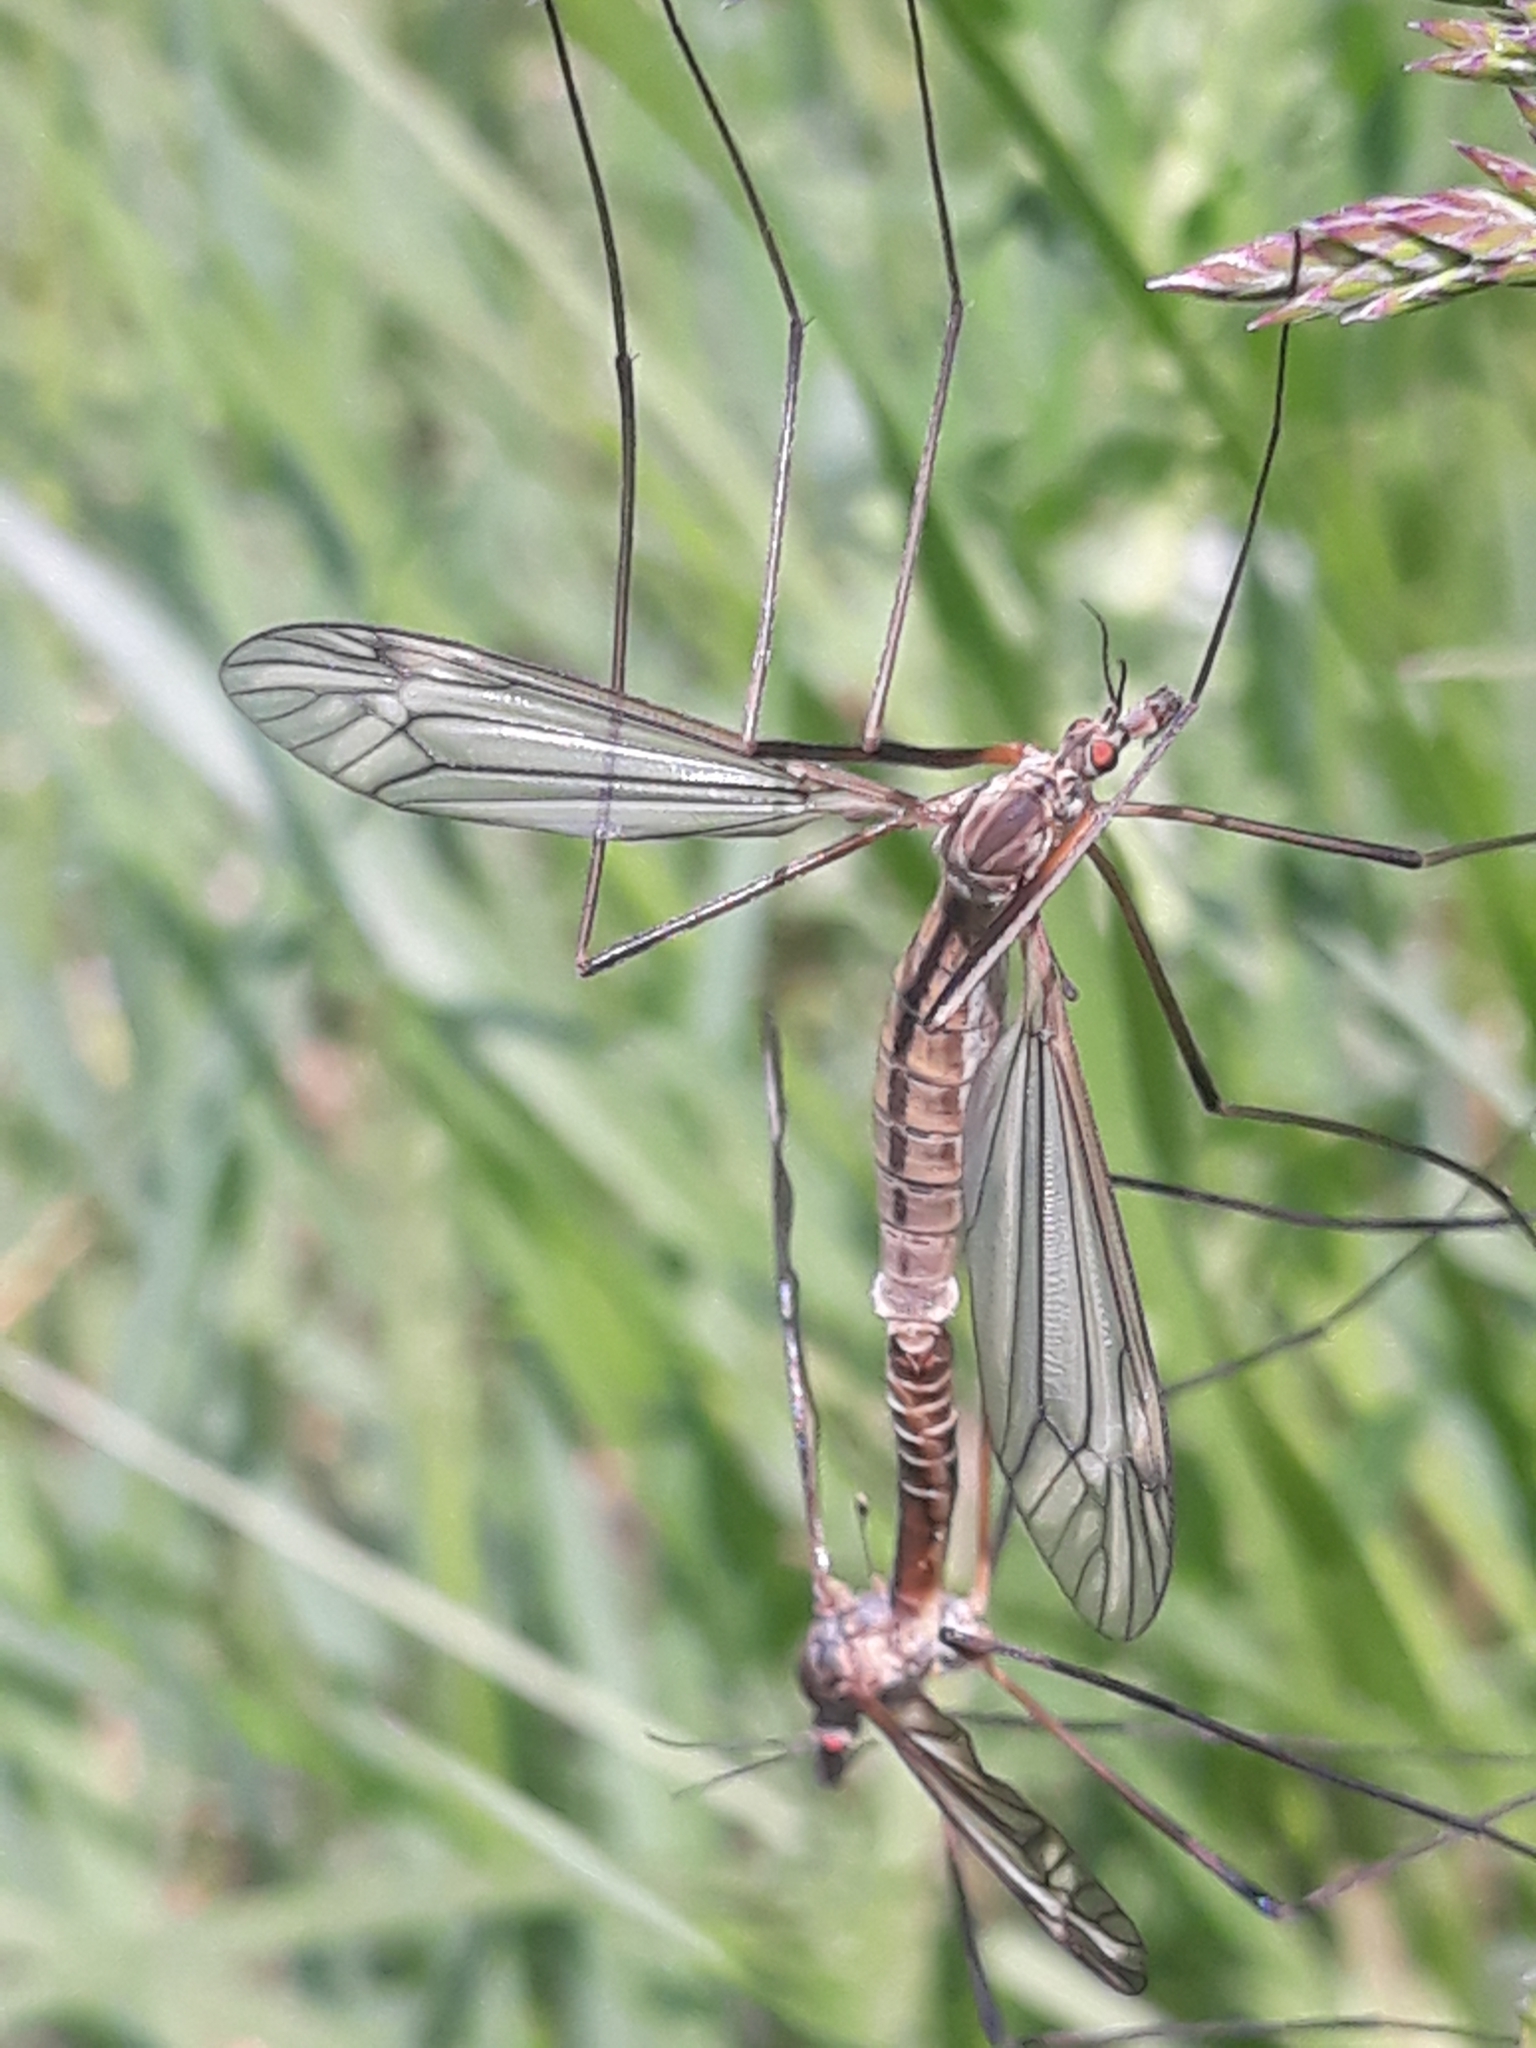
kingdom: Animalia
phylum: Arthropoda
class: Insecta
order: Diptera
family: Tipulidae
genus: Tipula
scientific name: Tipula vernalis
